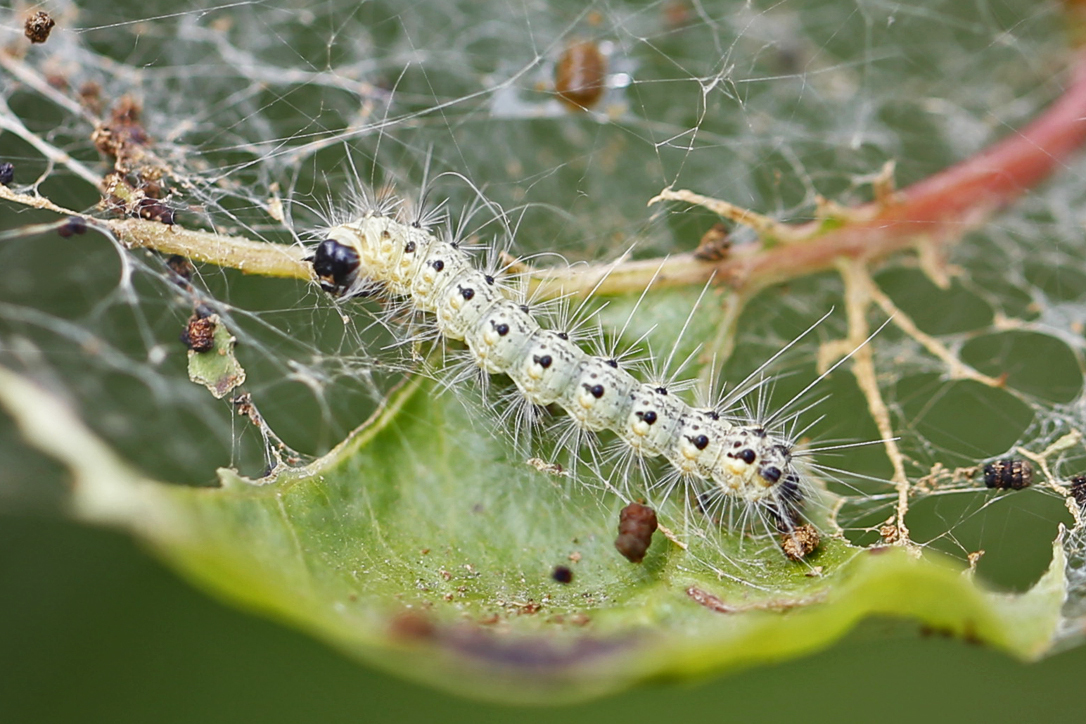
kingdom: Animalia
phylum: Arthropoda
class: Insecta
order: Lepidoptera
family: Erebidae
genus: Hyphantria
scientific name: Hyphantria cunea
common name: American white moth
